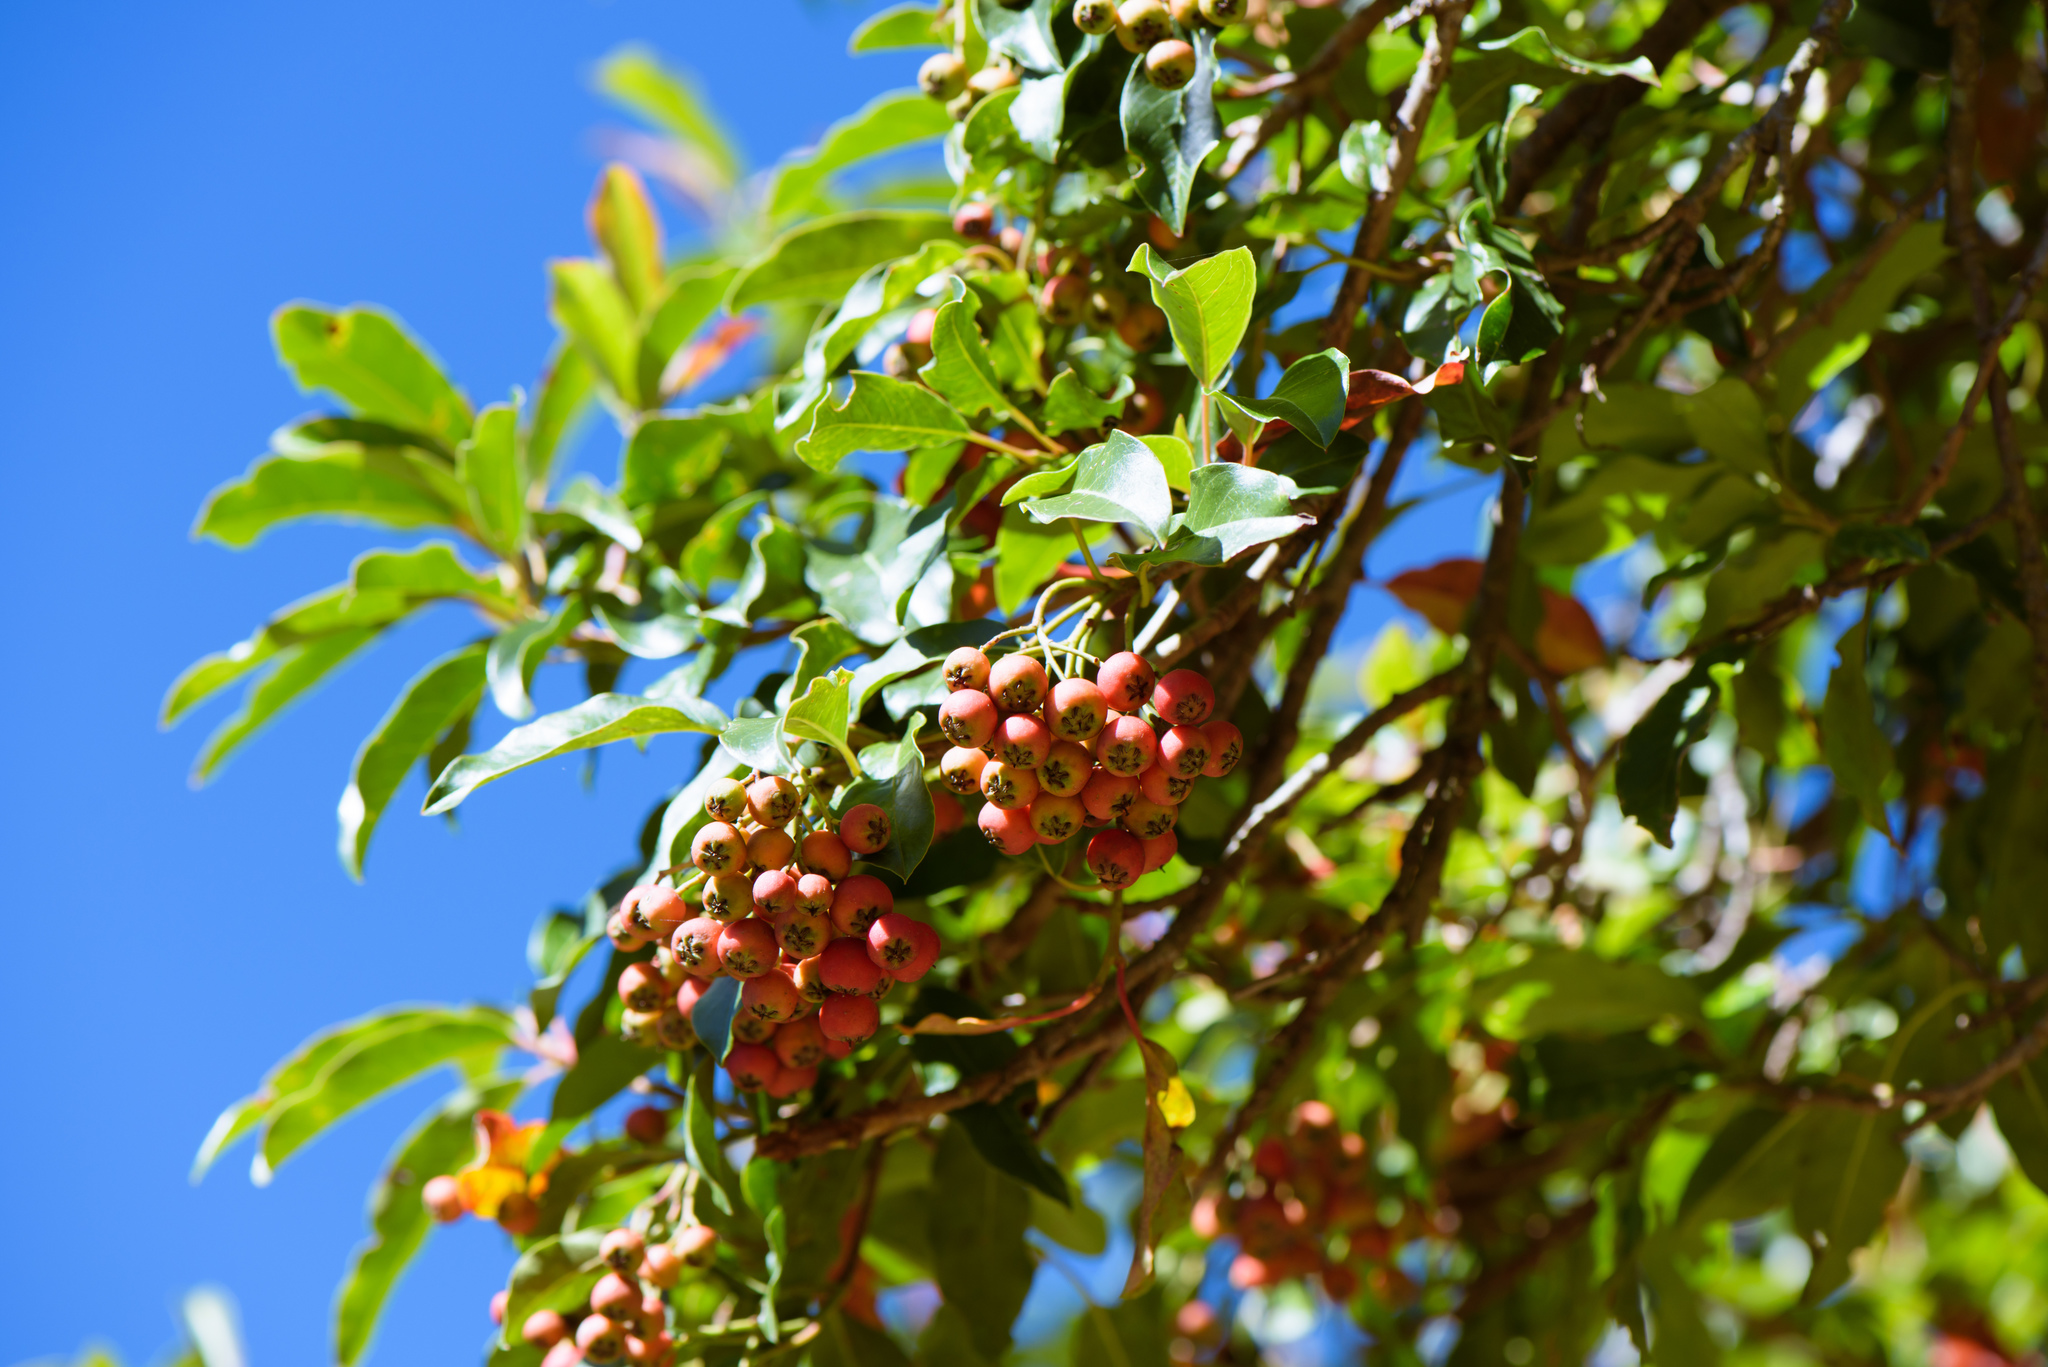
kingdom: Plantae
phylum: Tracheophyta
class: Magnoliopsida
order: Rosales
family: Rosaceae
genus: Stranvaesia
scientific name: Stranvaesia davidiana
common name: Chinese photinia
